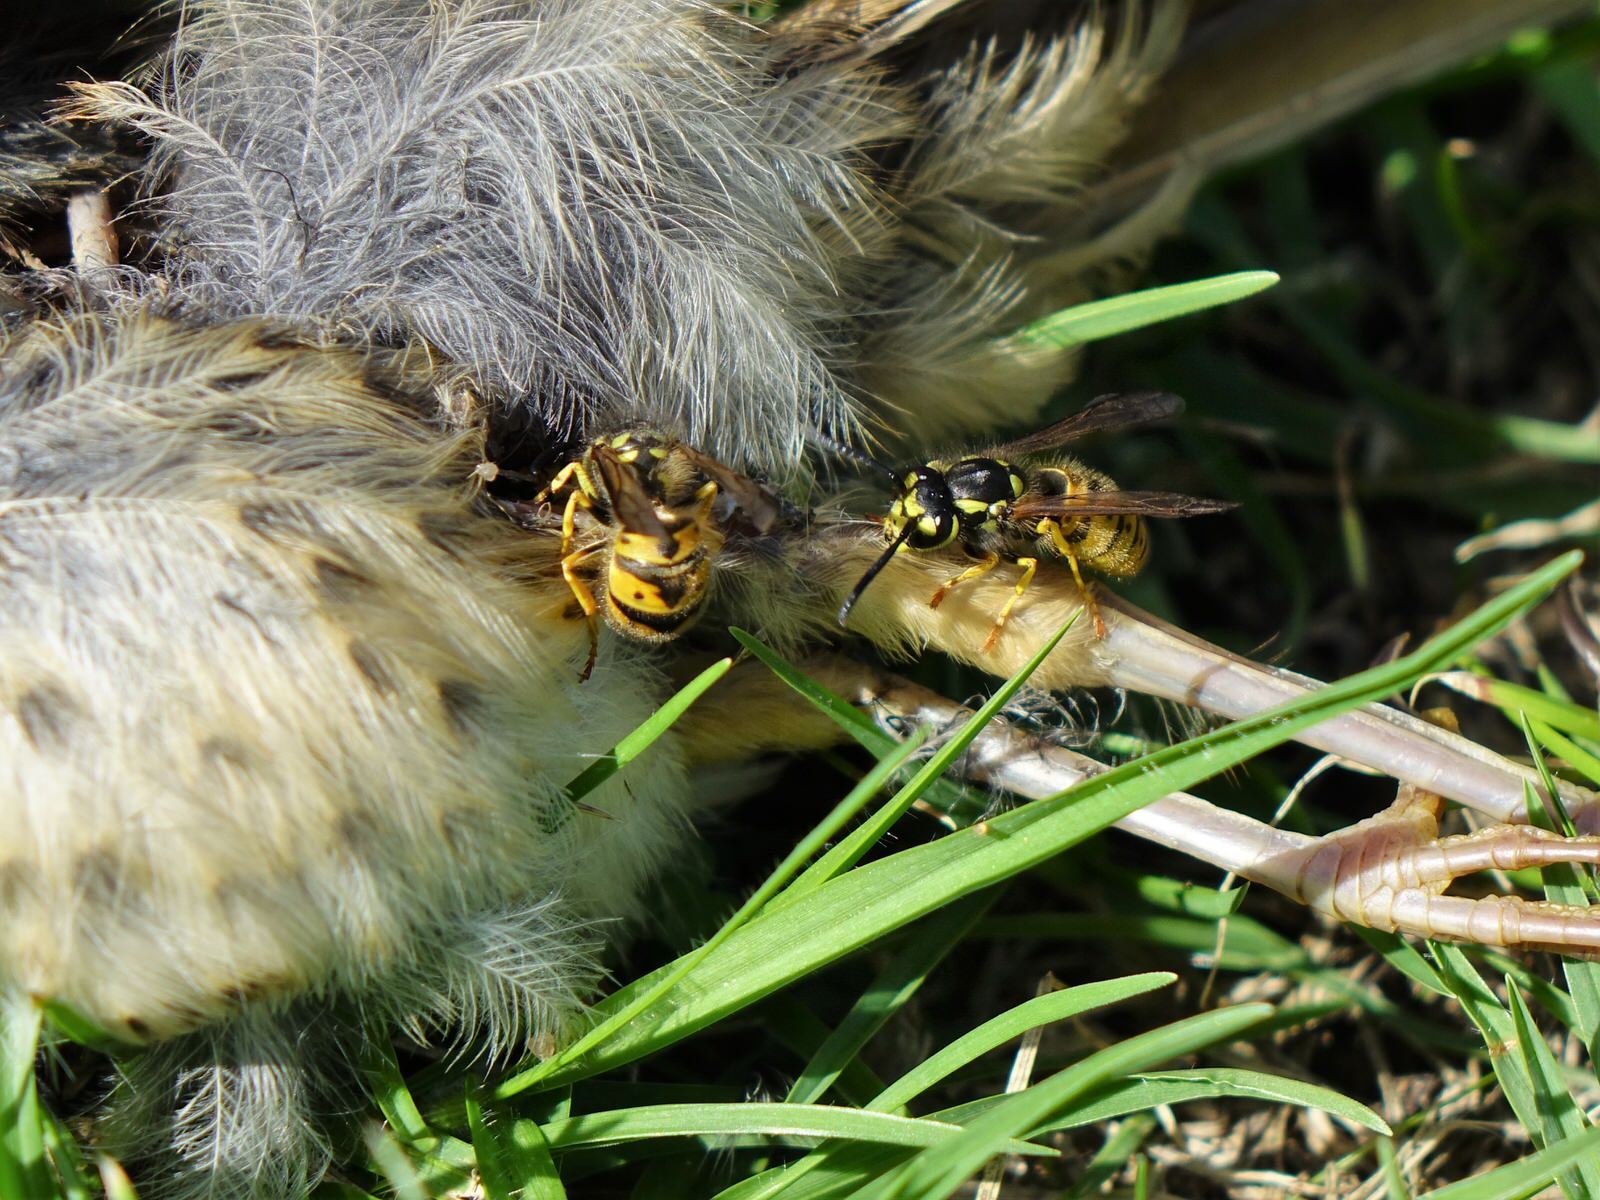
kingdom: Animalia
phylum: Arthropoda
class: Insecta
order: Hymenoptera
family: Vespidae
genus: Vespula
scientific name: Vespula germanica
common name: German wasp
